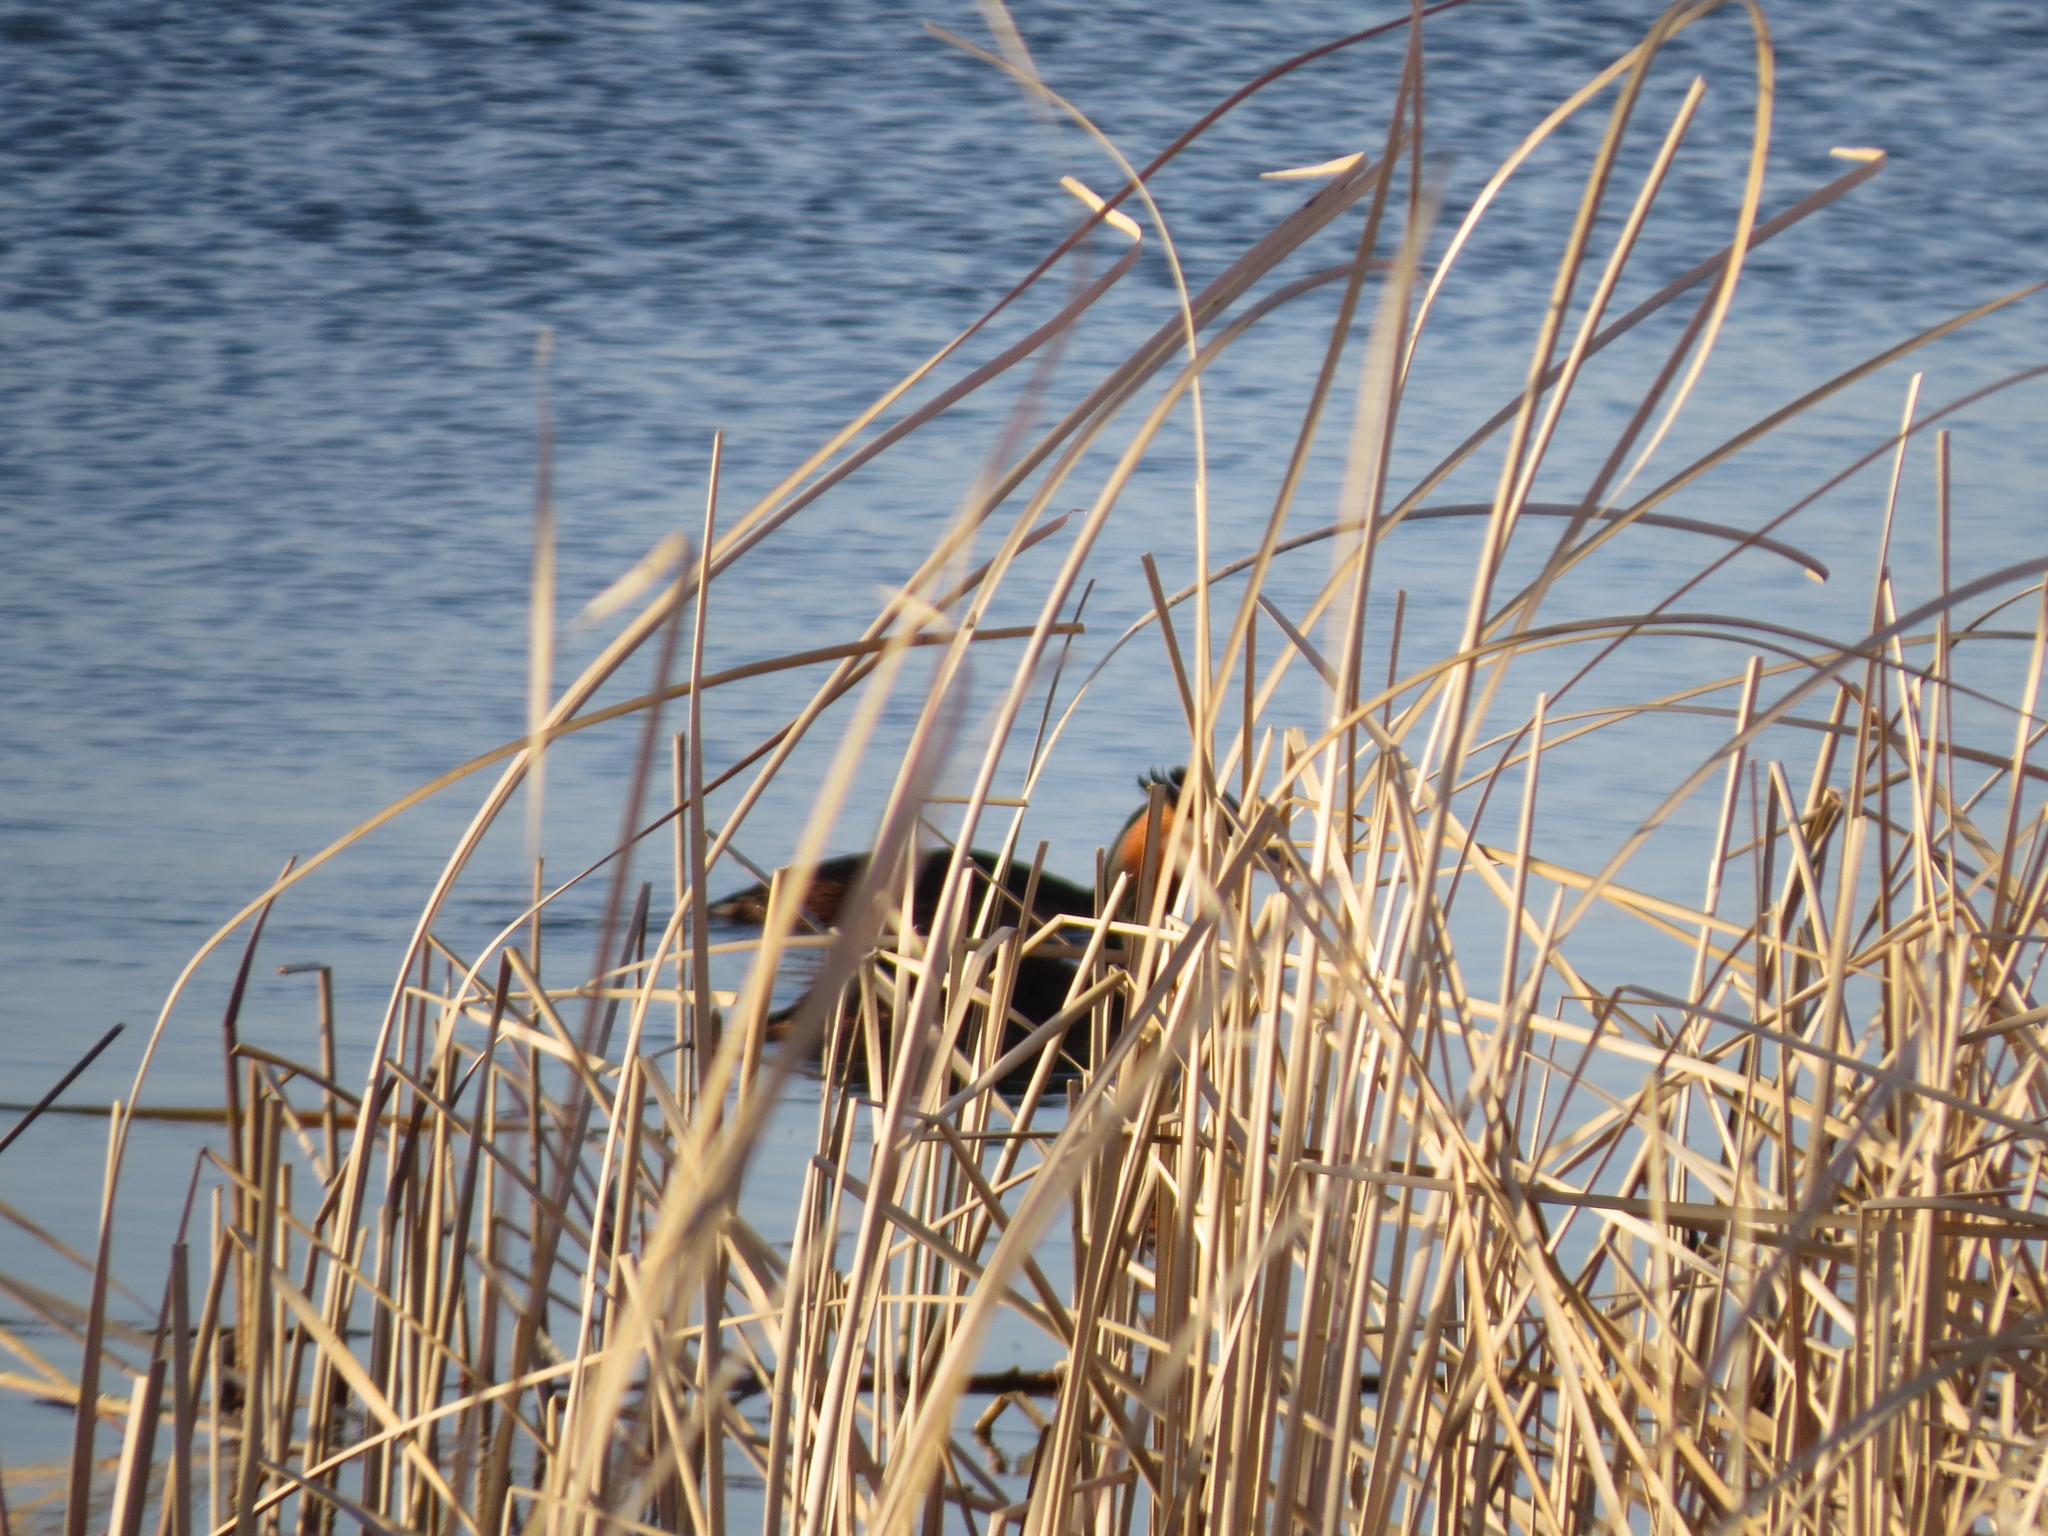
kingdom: Animalia
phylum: Chordata
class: Aves
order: Podicipediformes
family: Podicipedidae
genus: Podiceps
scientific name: Podiceps cristatus
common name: Great crested grebe
